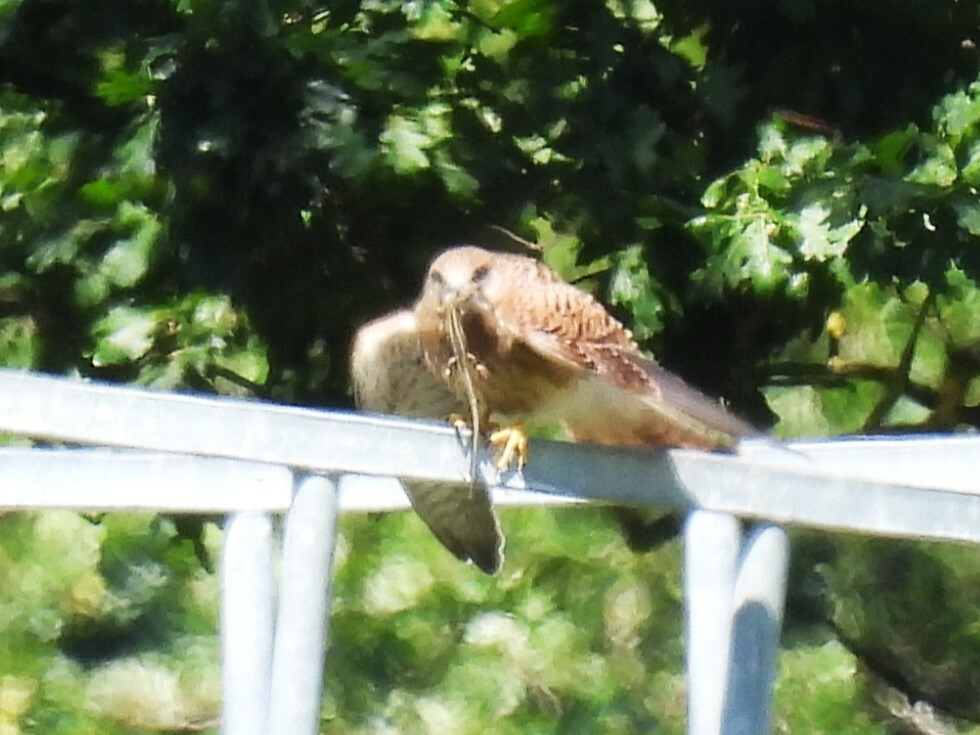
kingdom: Animalia
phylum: Chordata
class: Aves
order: Falconiformes
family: Falconidae
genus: Falco
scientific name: Falco tinnunculus
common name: Common kestrel
